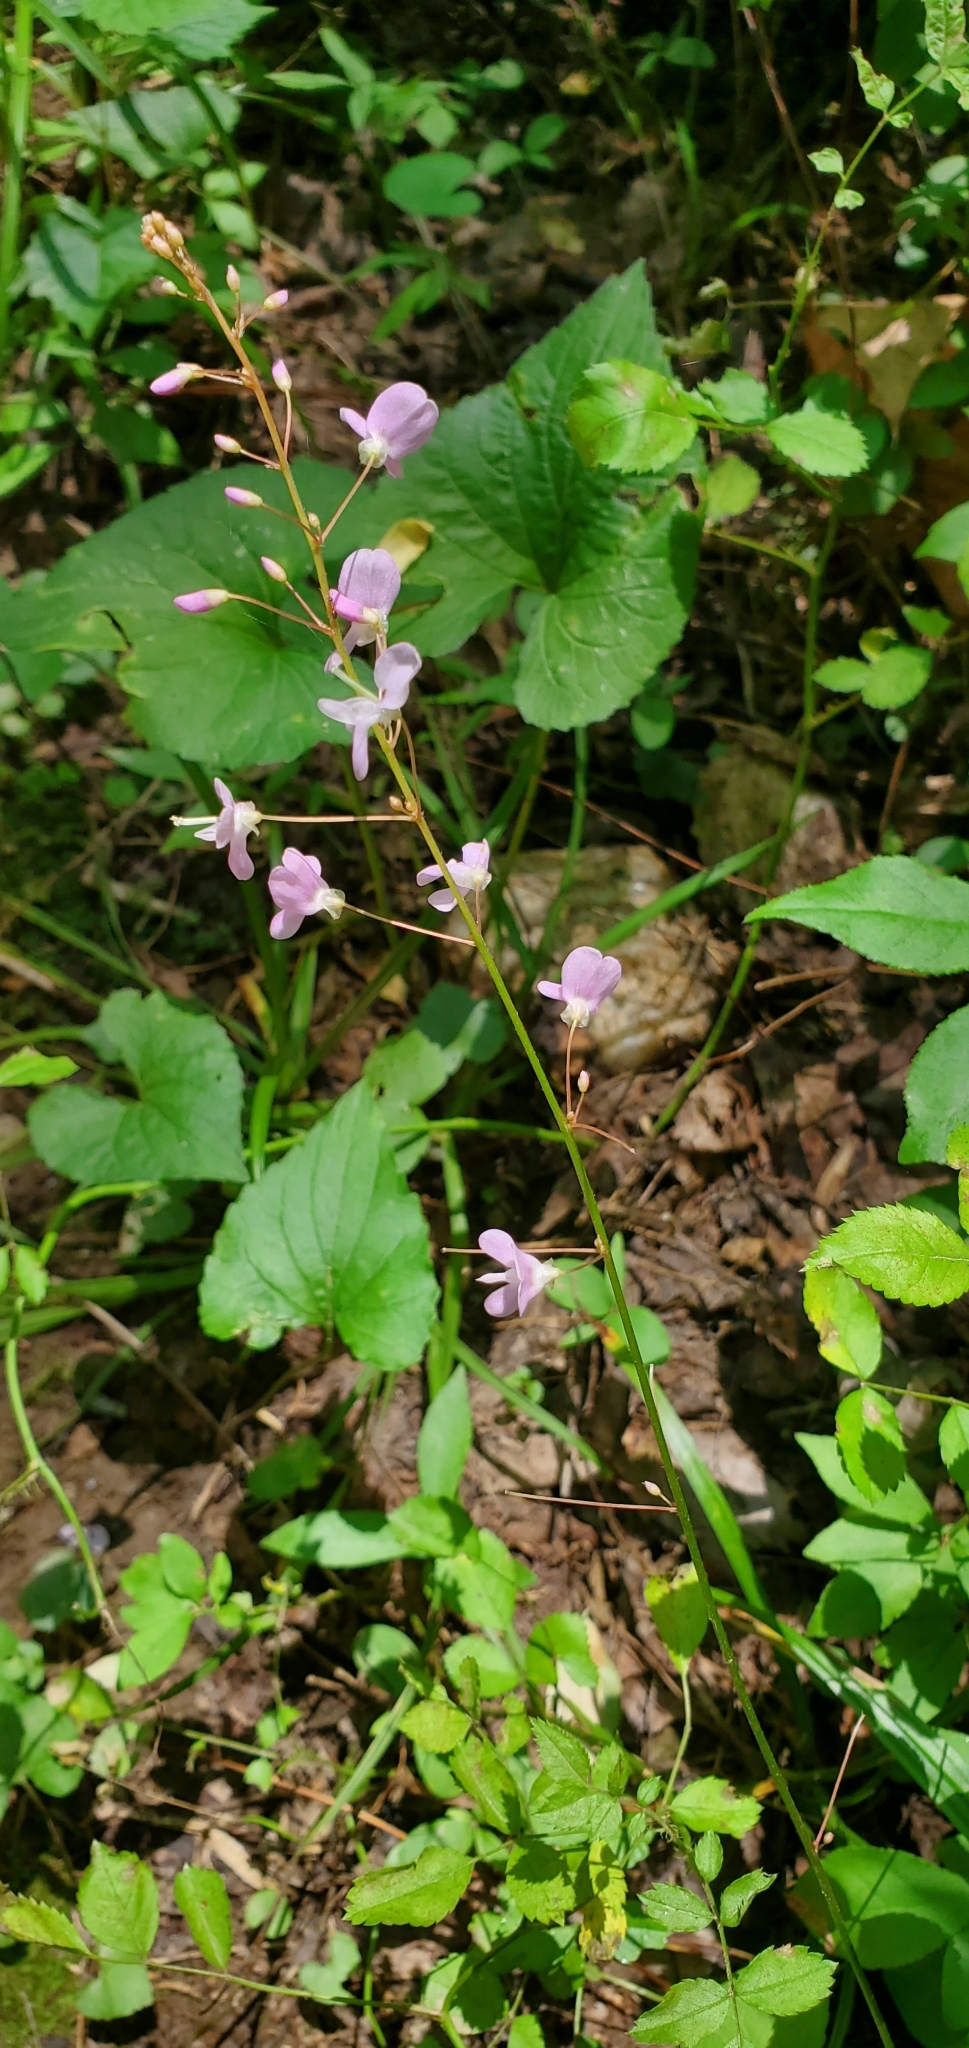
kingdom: Plantae
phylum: Tracheophyta
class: Magnoliopsida
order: Fabales
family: Fabaceae
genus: Hylodesmum
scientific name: Hylodesmum nudiflorum
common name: Bare-stemmed tick-trefoil
